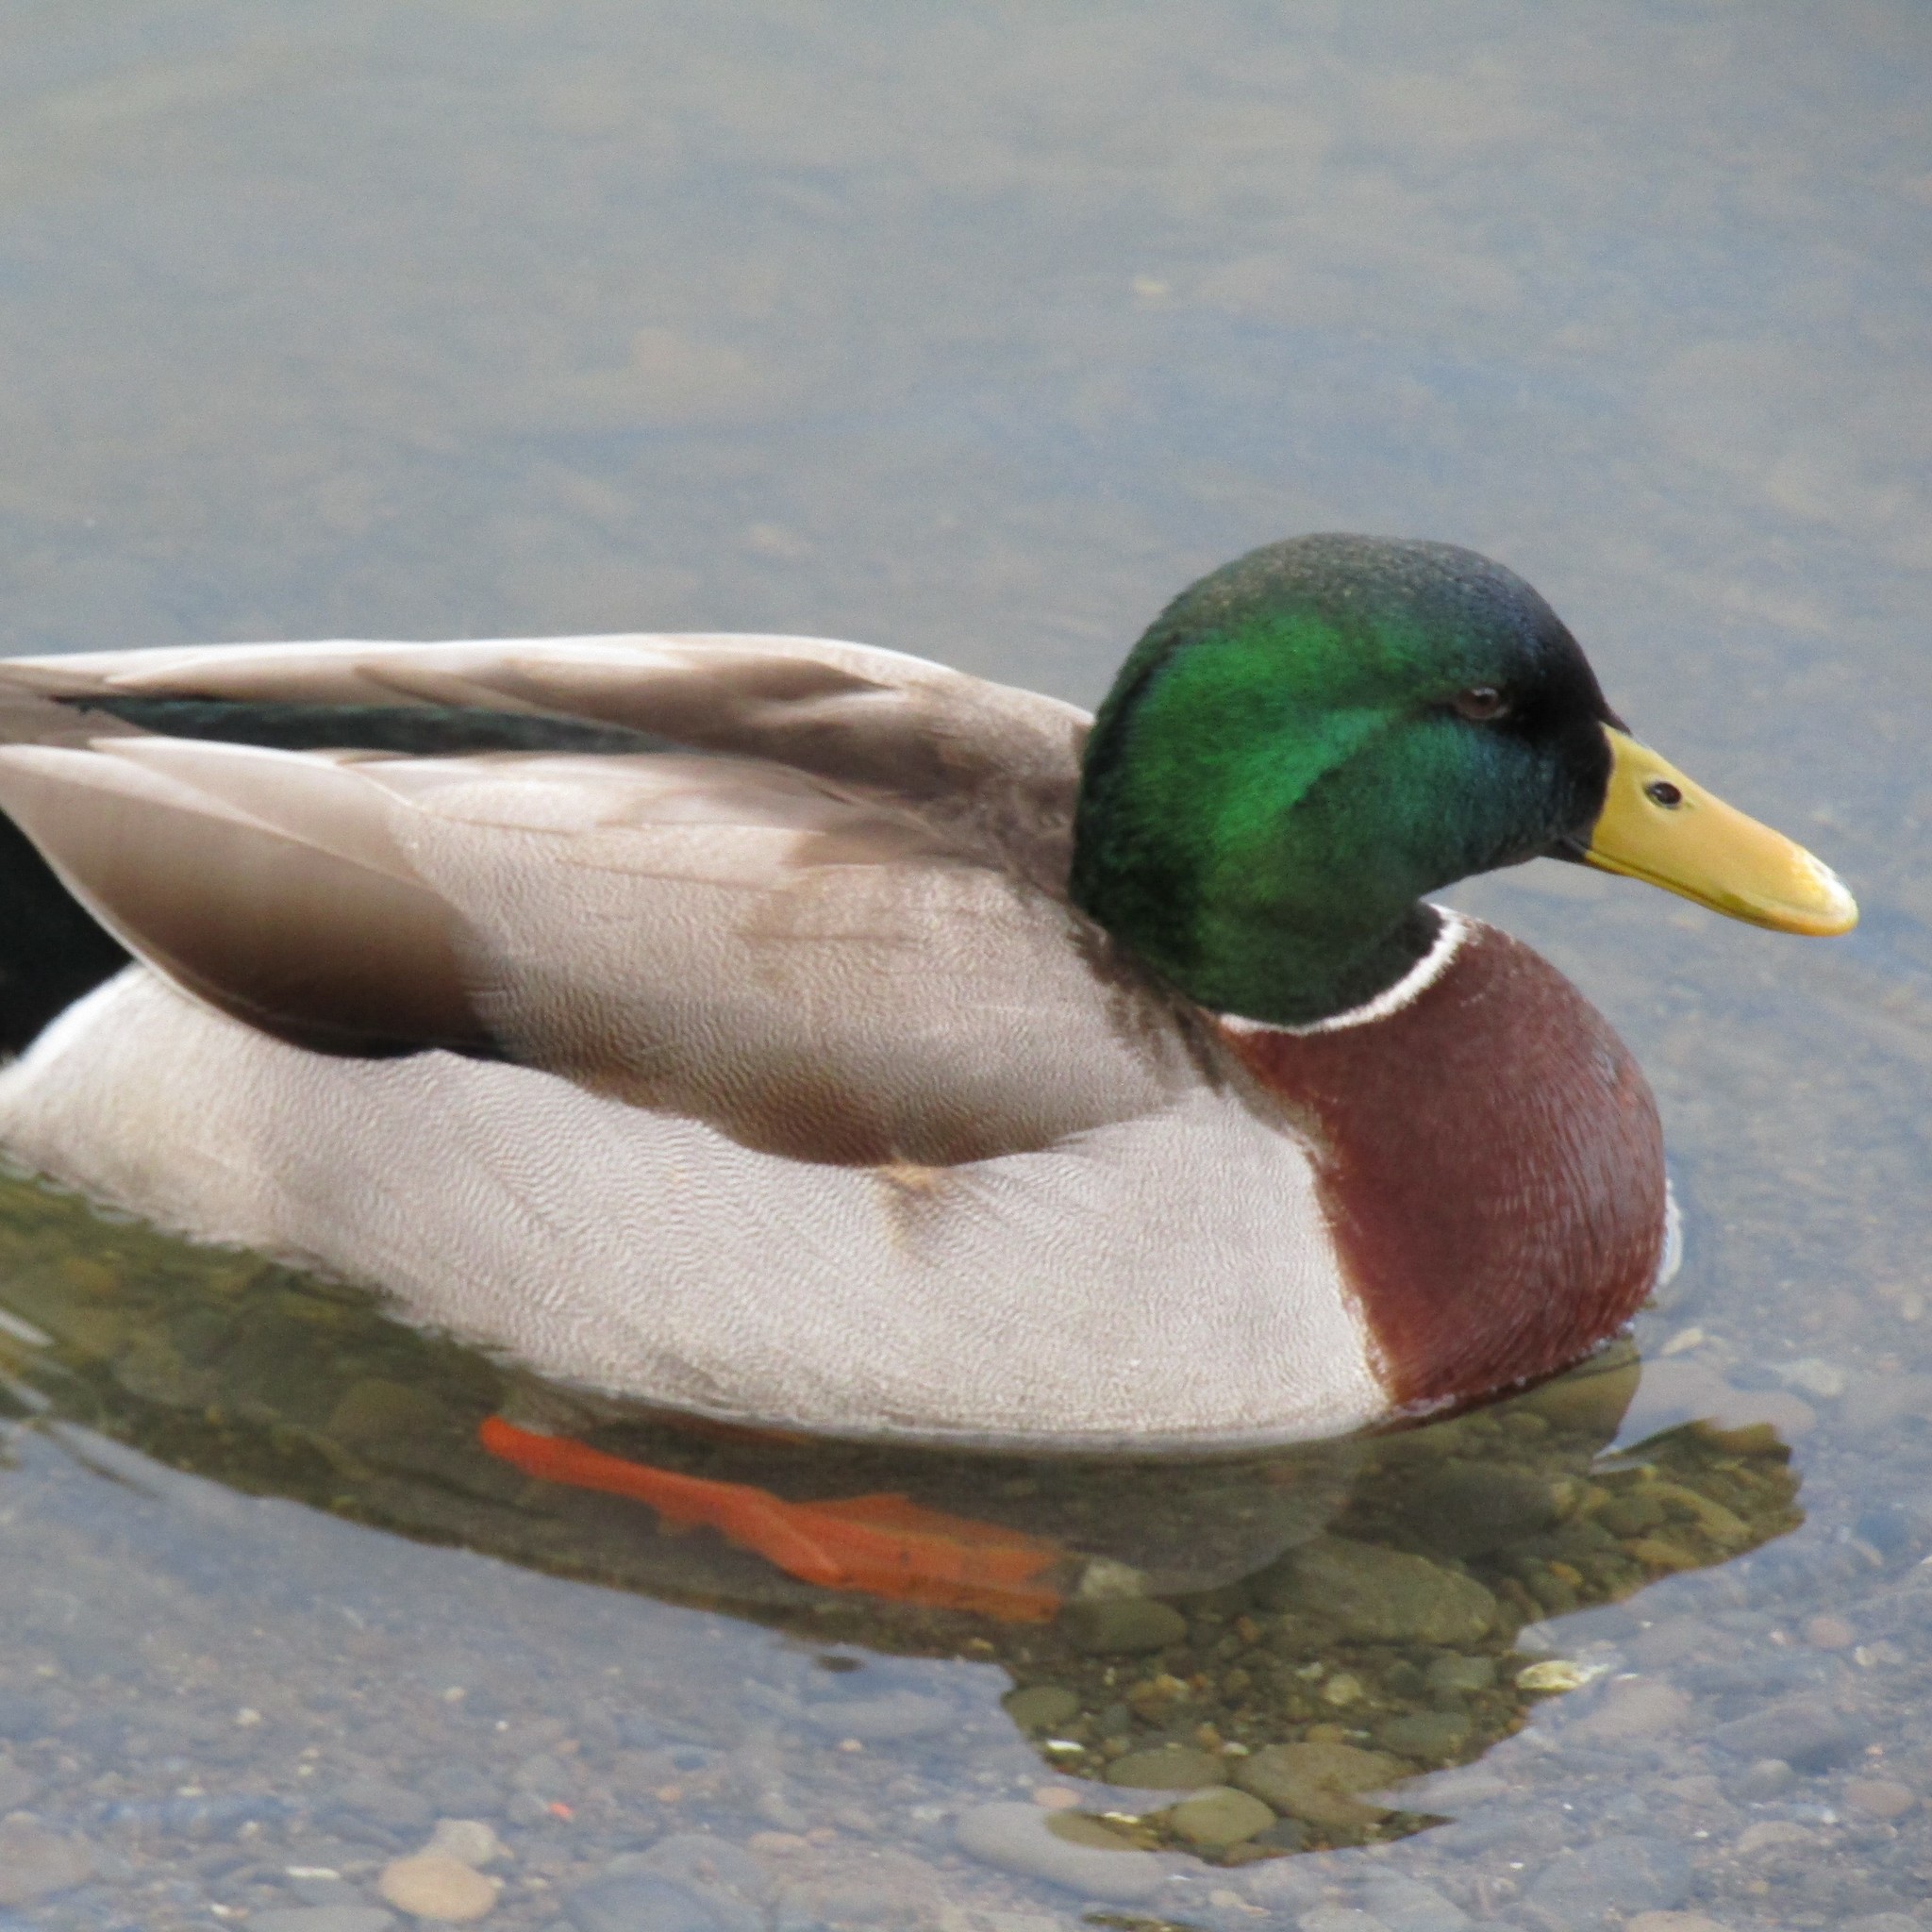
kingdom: Animalia
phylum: Chordata
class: Aves
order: Anseriformes
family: Anatidae
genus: Anas
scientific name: Anas platyrhynchos
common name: Mallard
